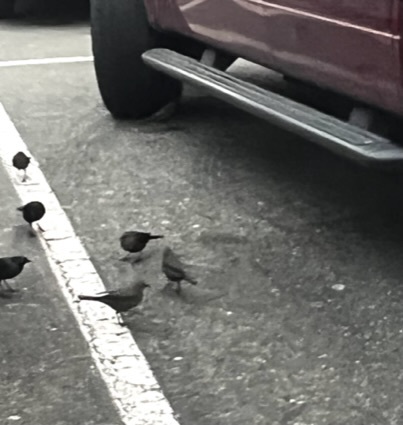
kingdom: Animalia
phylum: Chordata
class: Aves
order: Passeriformes
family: Icteridae
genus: Euphagus
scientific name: Euphagus cyanocephalus
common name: Brewer's blackbird
